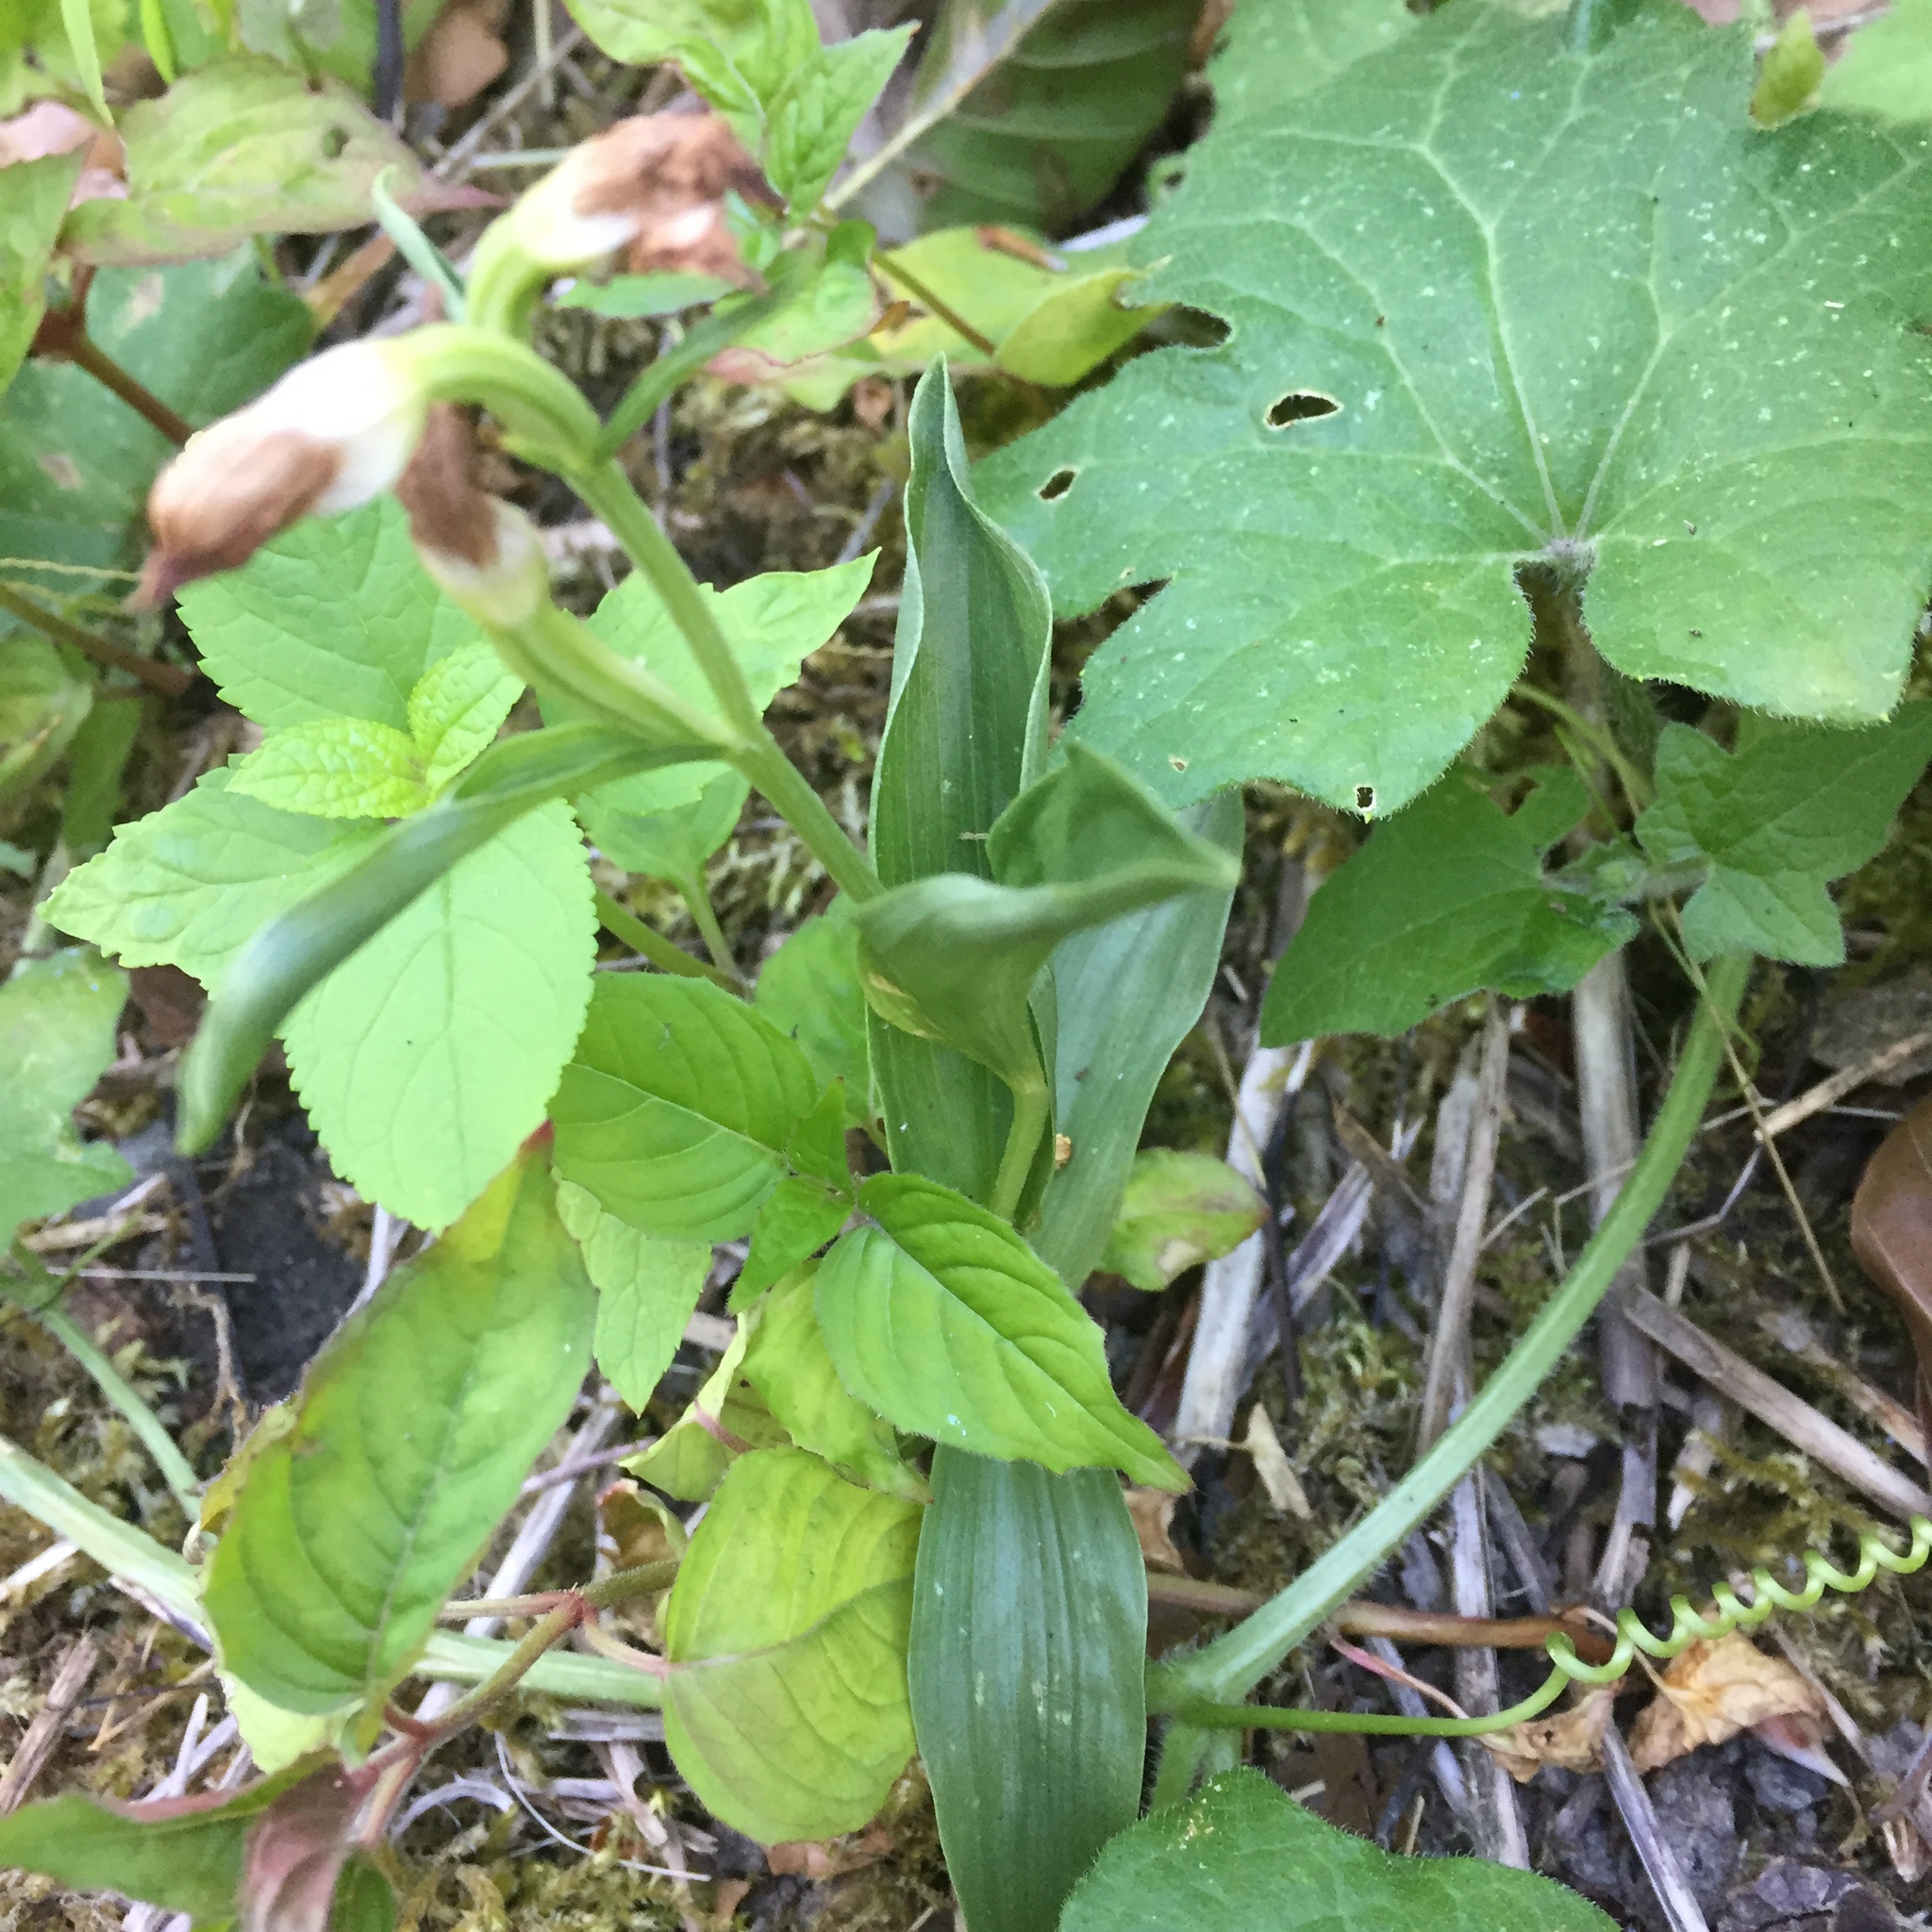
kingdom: Plantae
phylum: Tracheophyta
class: Liliopsida
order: Asparagales
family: Orchidaceae
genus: Cephalanthera
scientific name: Cephalanthera damasonium
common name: White helleborine
